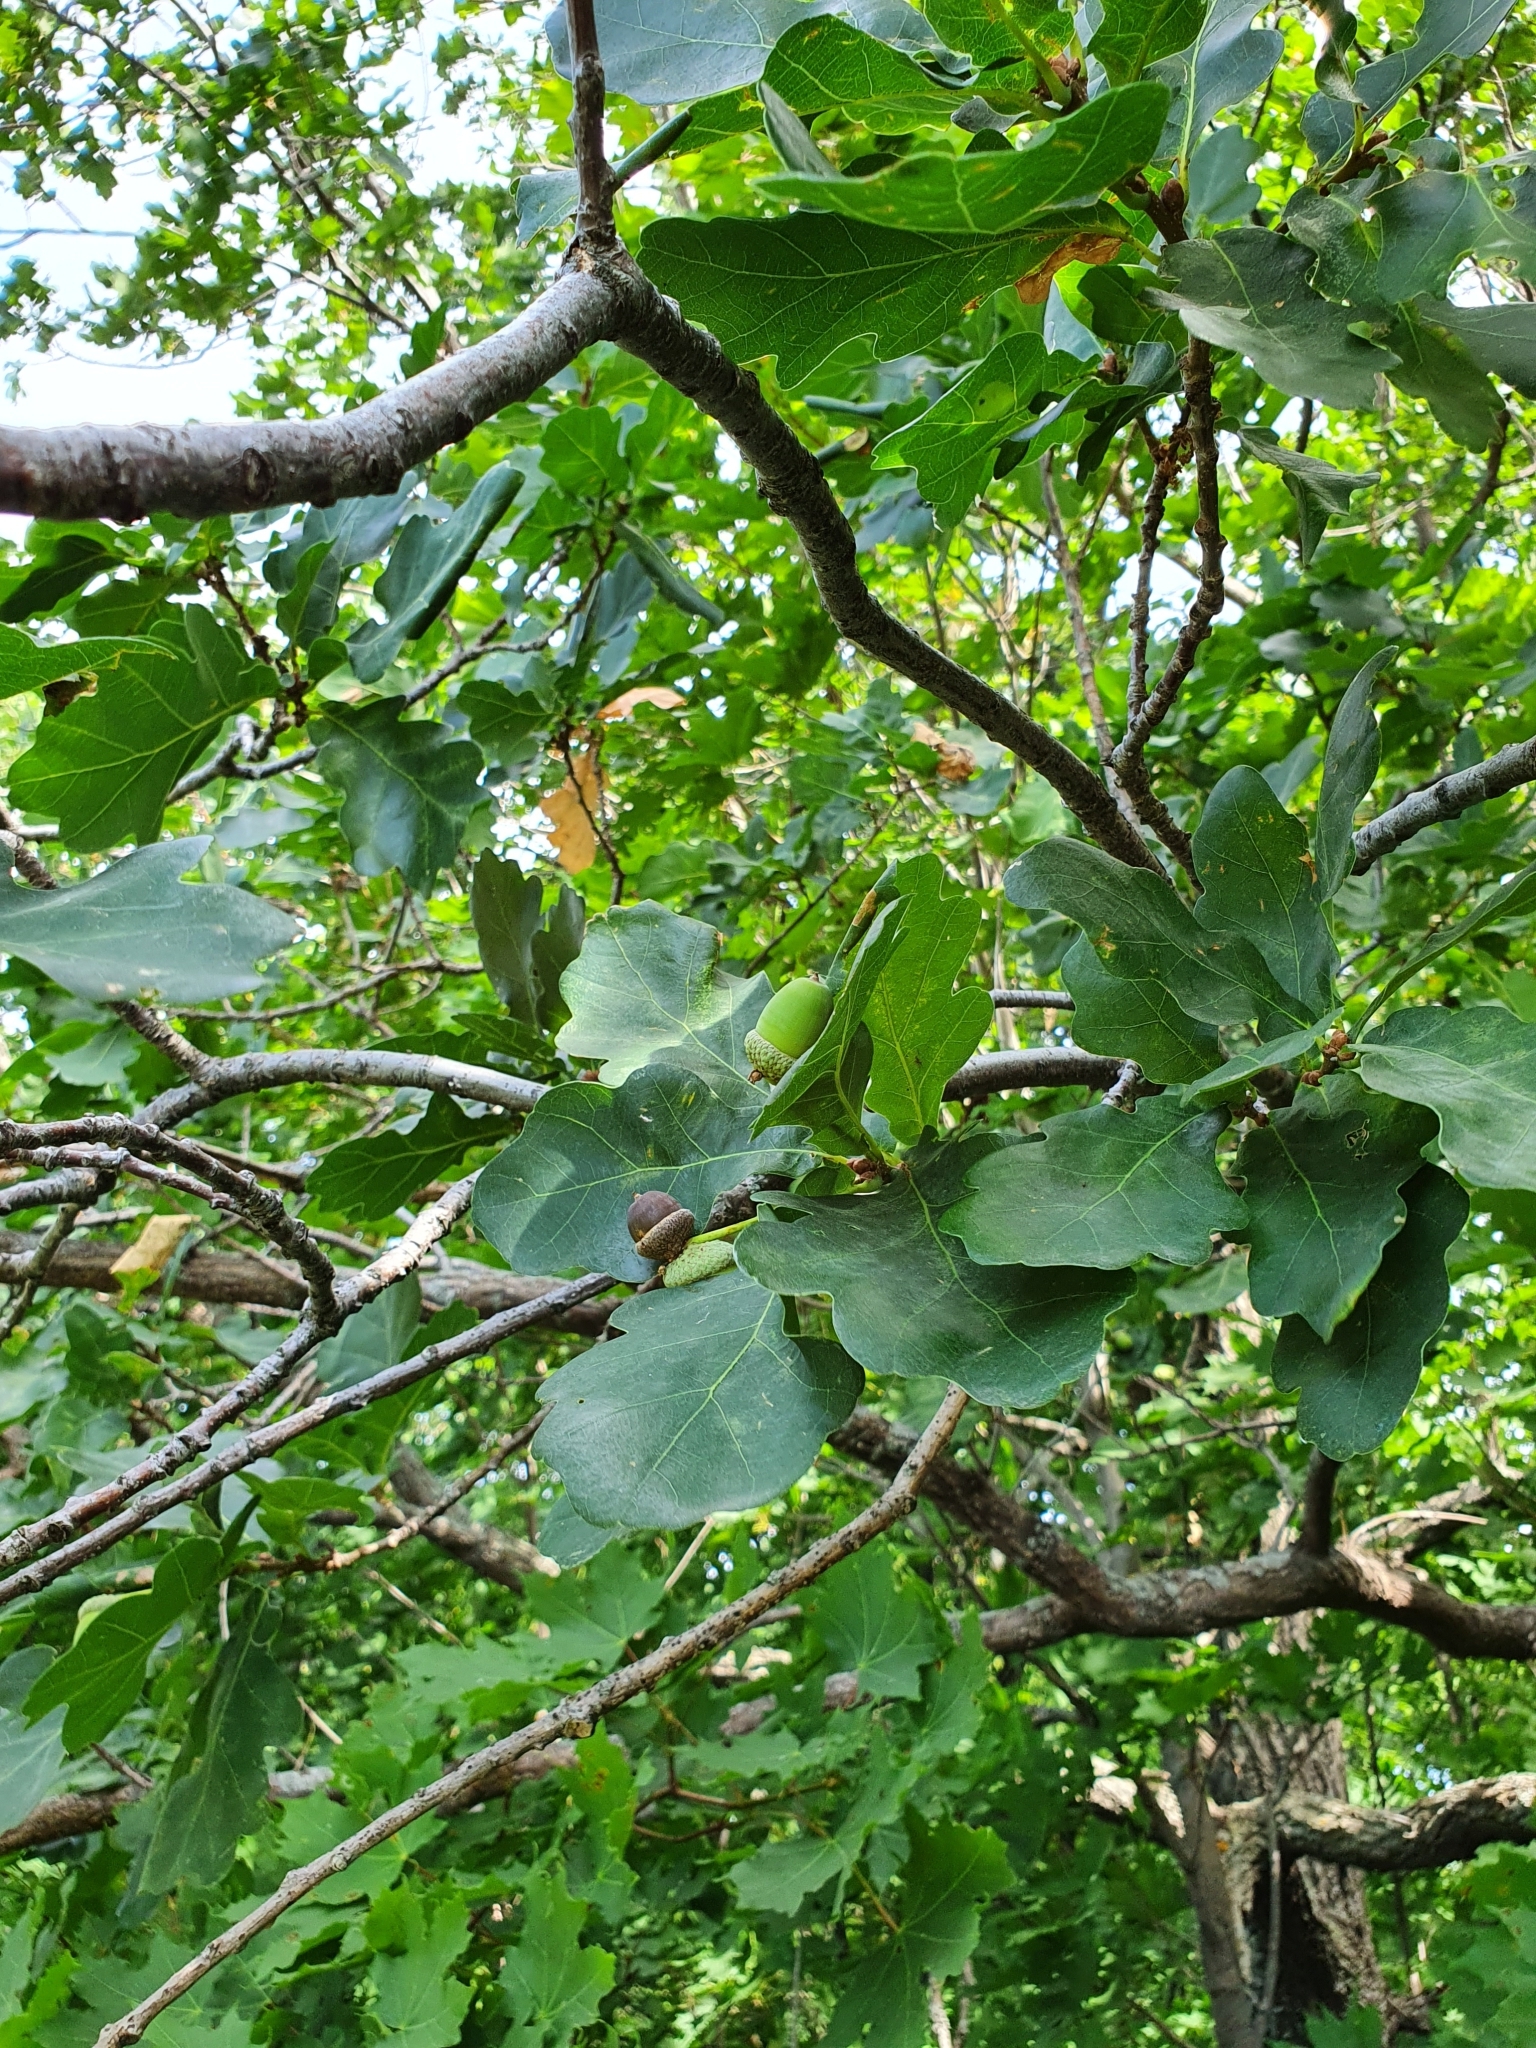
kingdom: Plantae
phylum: Tracheophyta
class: Magnoliopsida
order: Fagales
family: Fagaceae
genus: Quercus
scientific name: Quercus robur
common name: Pedunculate oak
